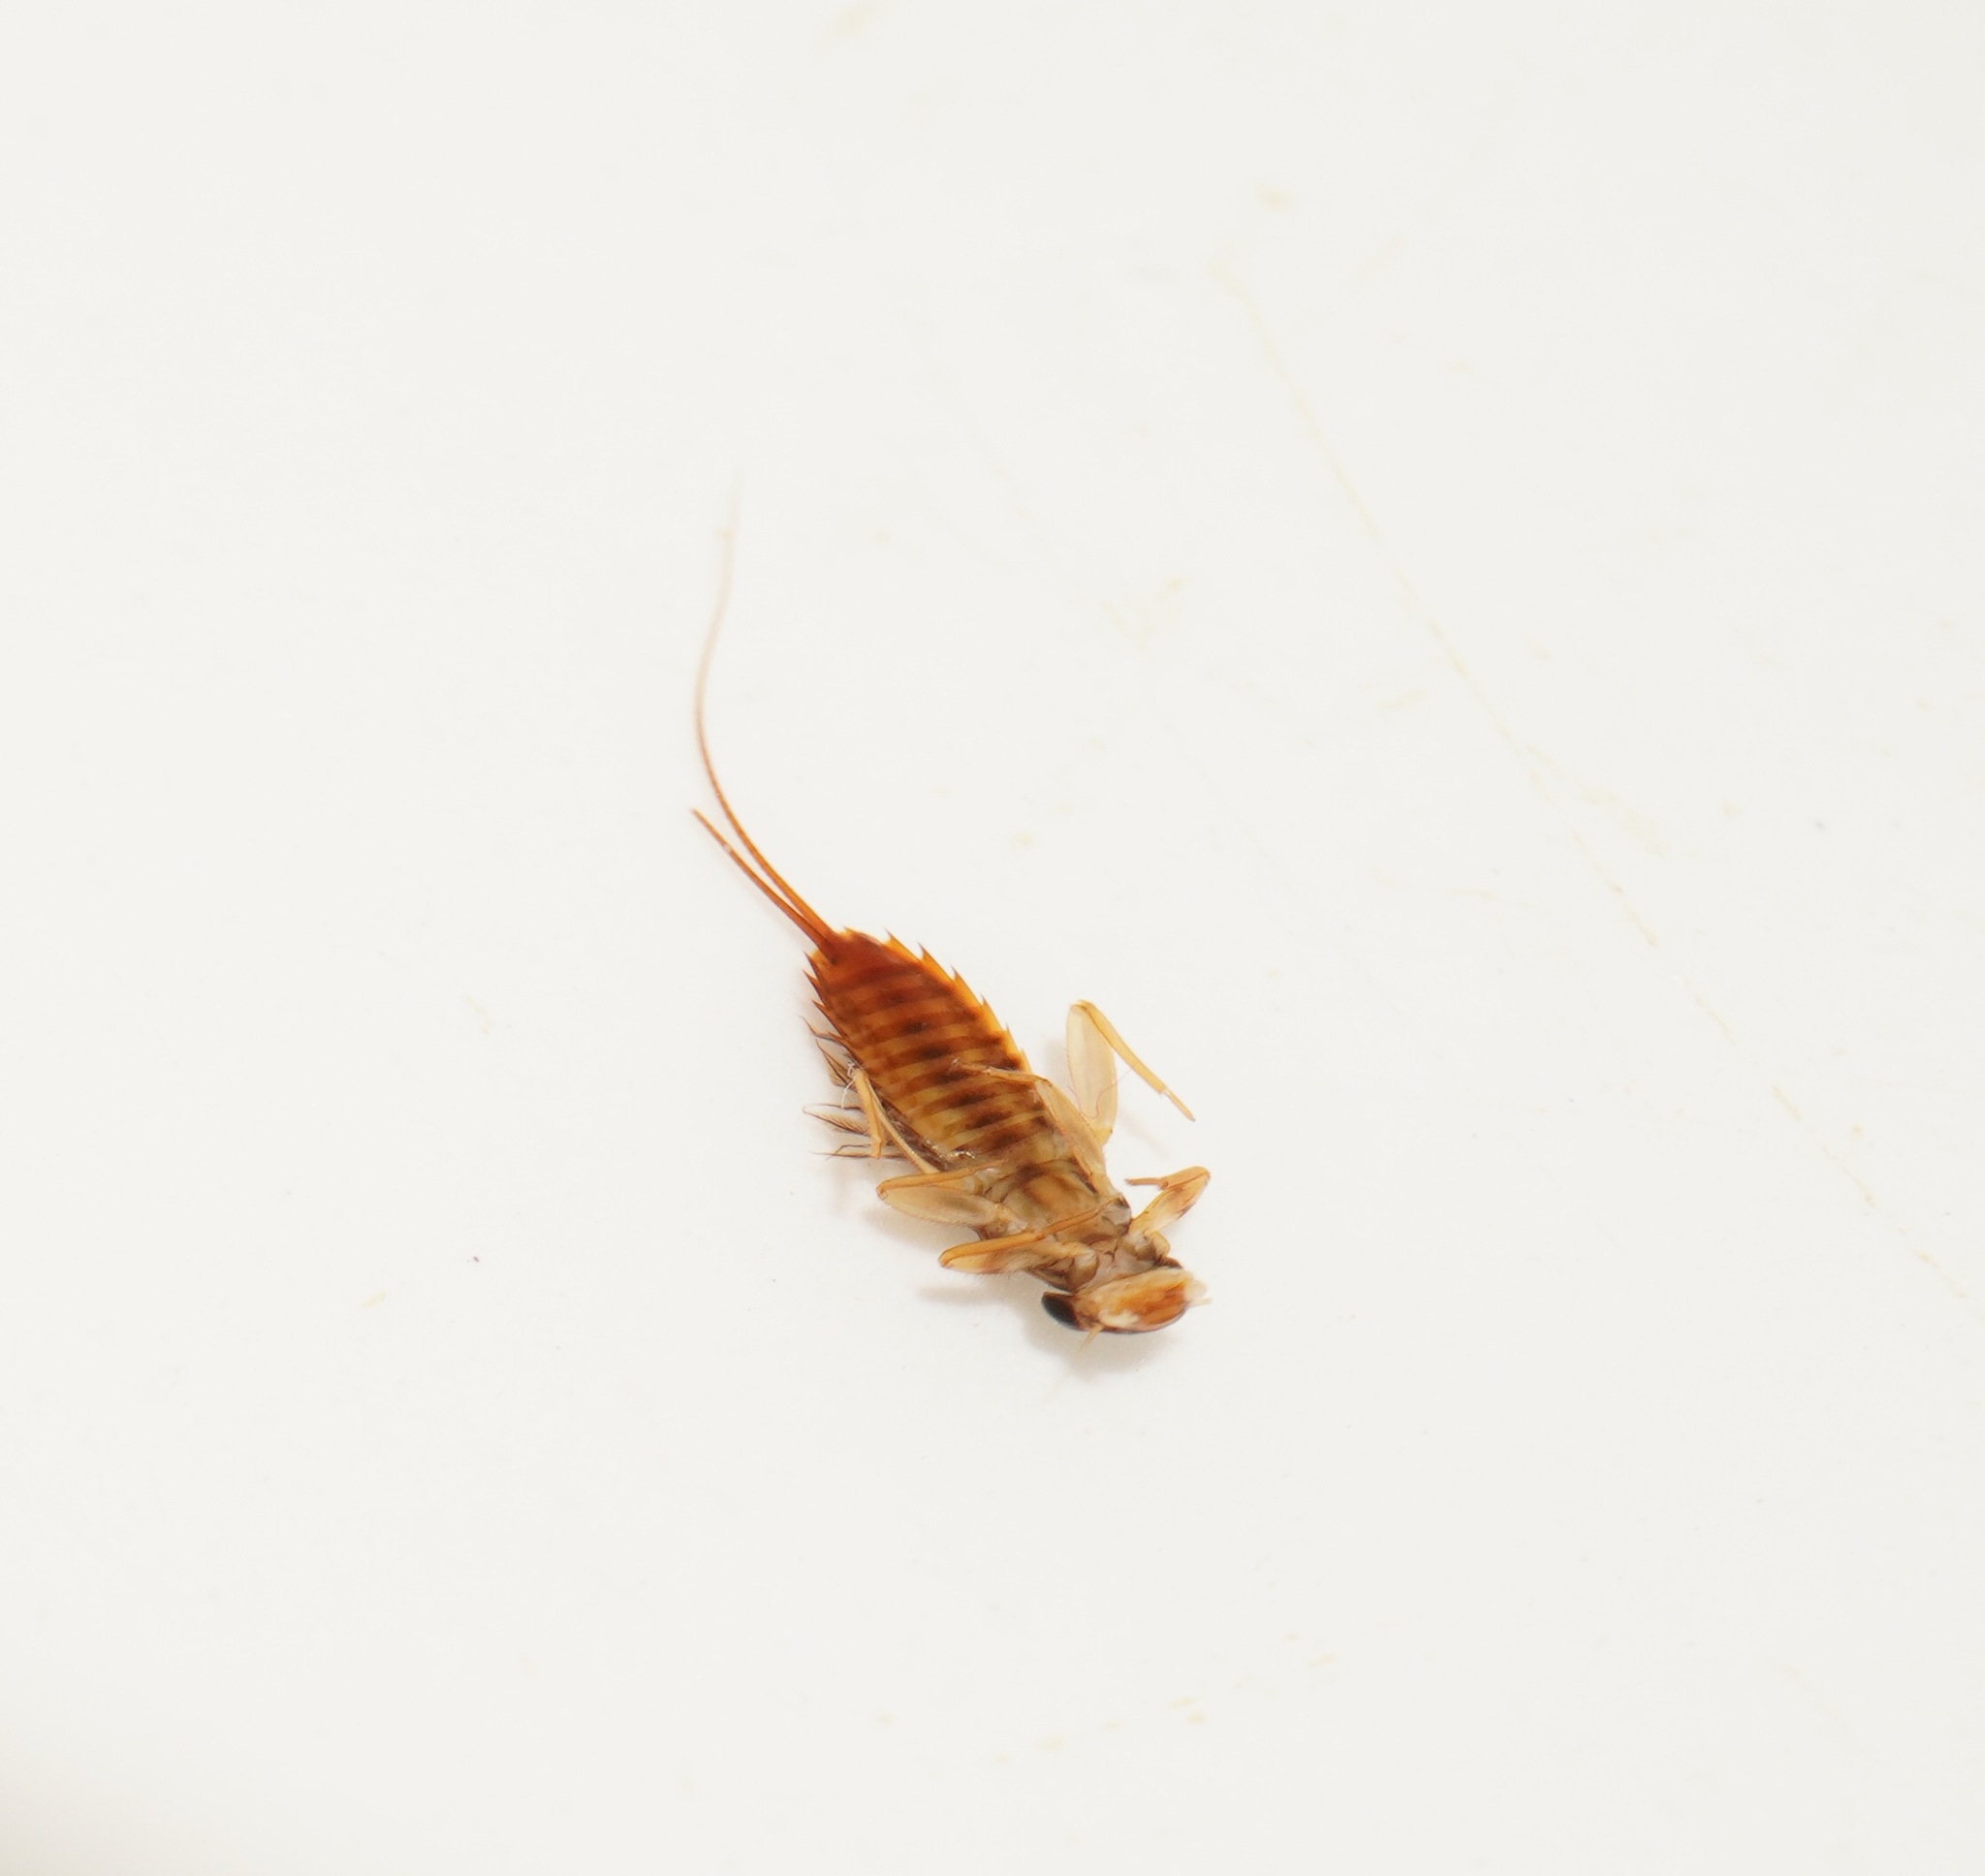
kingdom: Animalia
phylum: Arthropoda
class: Insecta
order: Ephemeroptera
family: Leptophlebiidae
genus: Acanthophlebia
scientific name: Acanthophlebia cruentata
